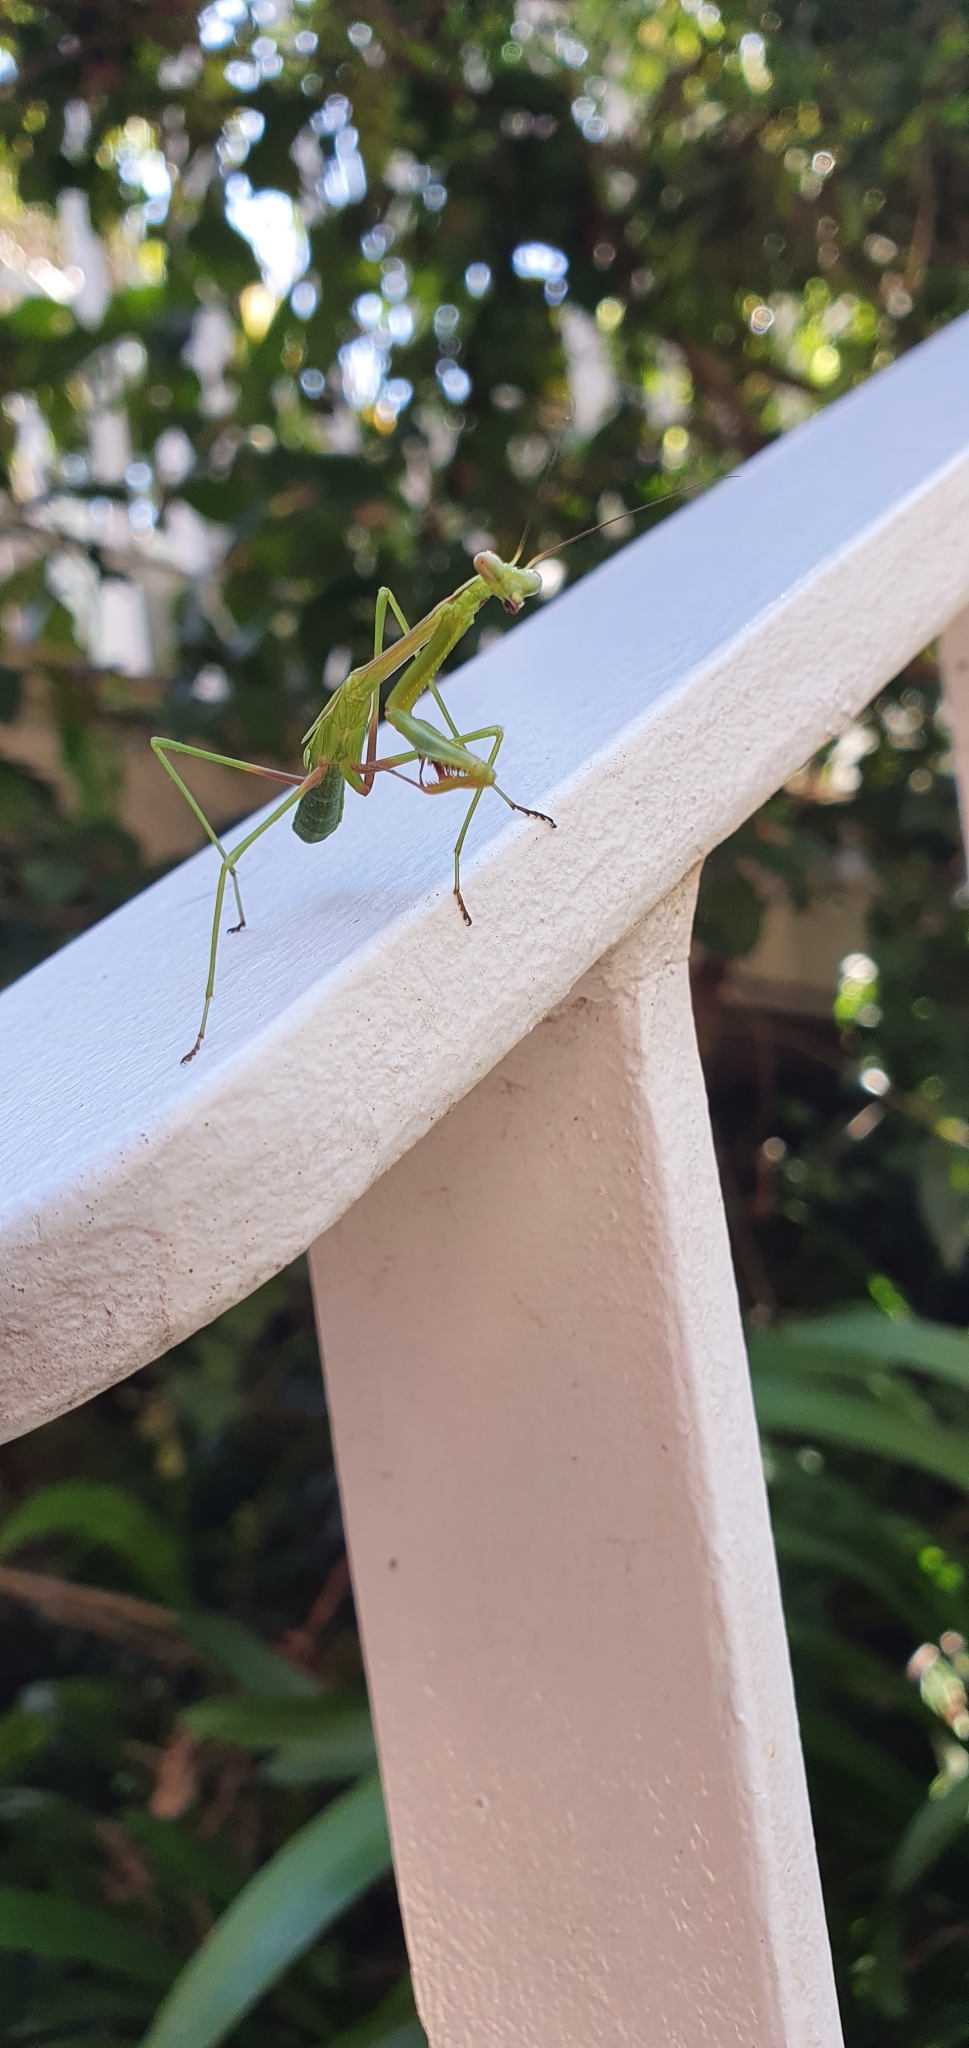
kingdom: Animalia
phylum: Arthropoda
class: Insecta
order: Mantodea
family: Mantidae
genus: Pseudomantis
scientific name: Pseudomantis albofimbriata
